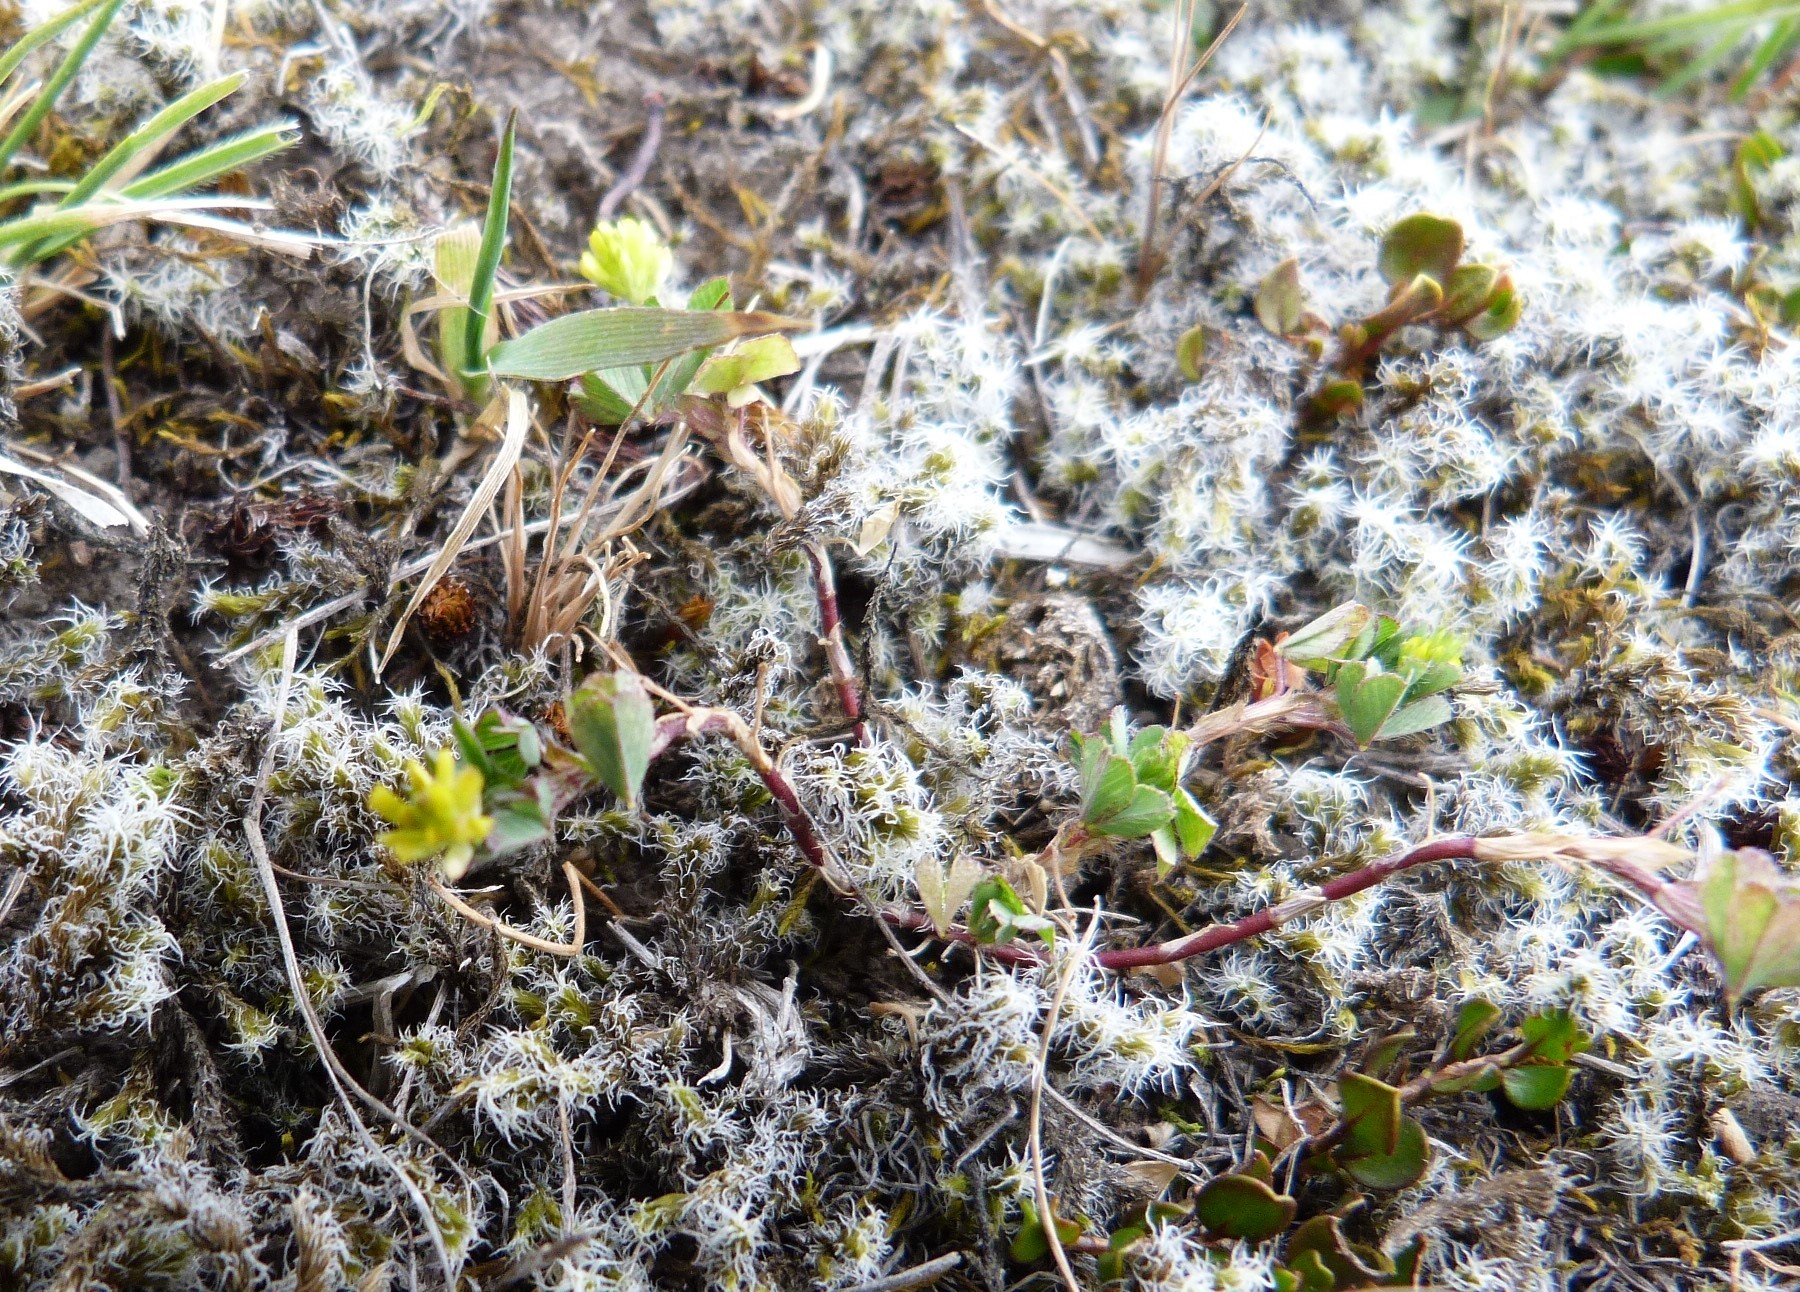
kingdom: Plantae
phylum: Tracheophyta
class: Magnoliopsida
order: Fabales
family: Fabaceae
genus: Trifolium
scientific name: Trifolium dubium
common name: Suckling clover
